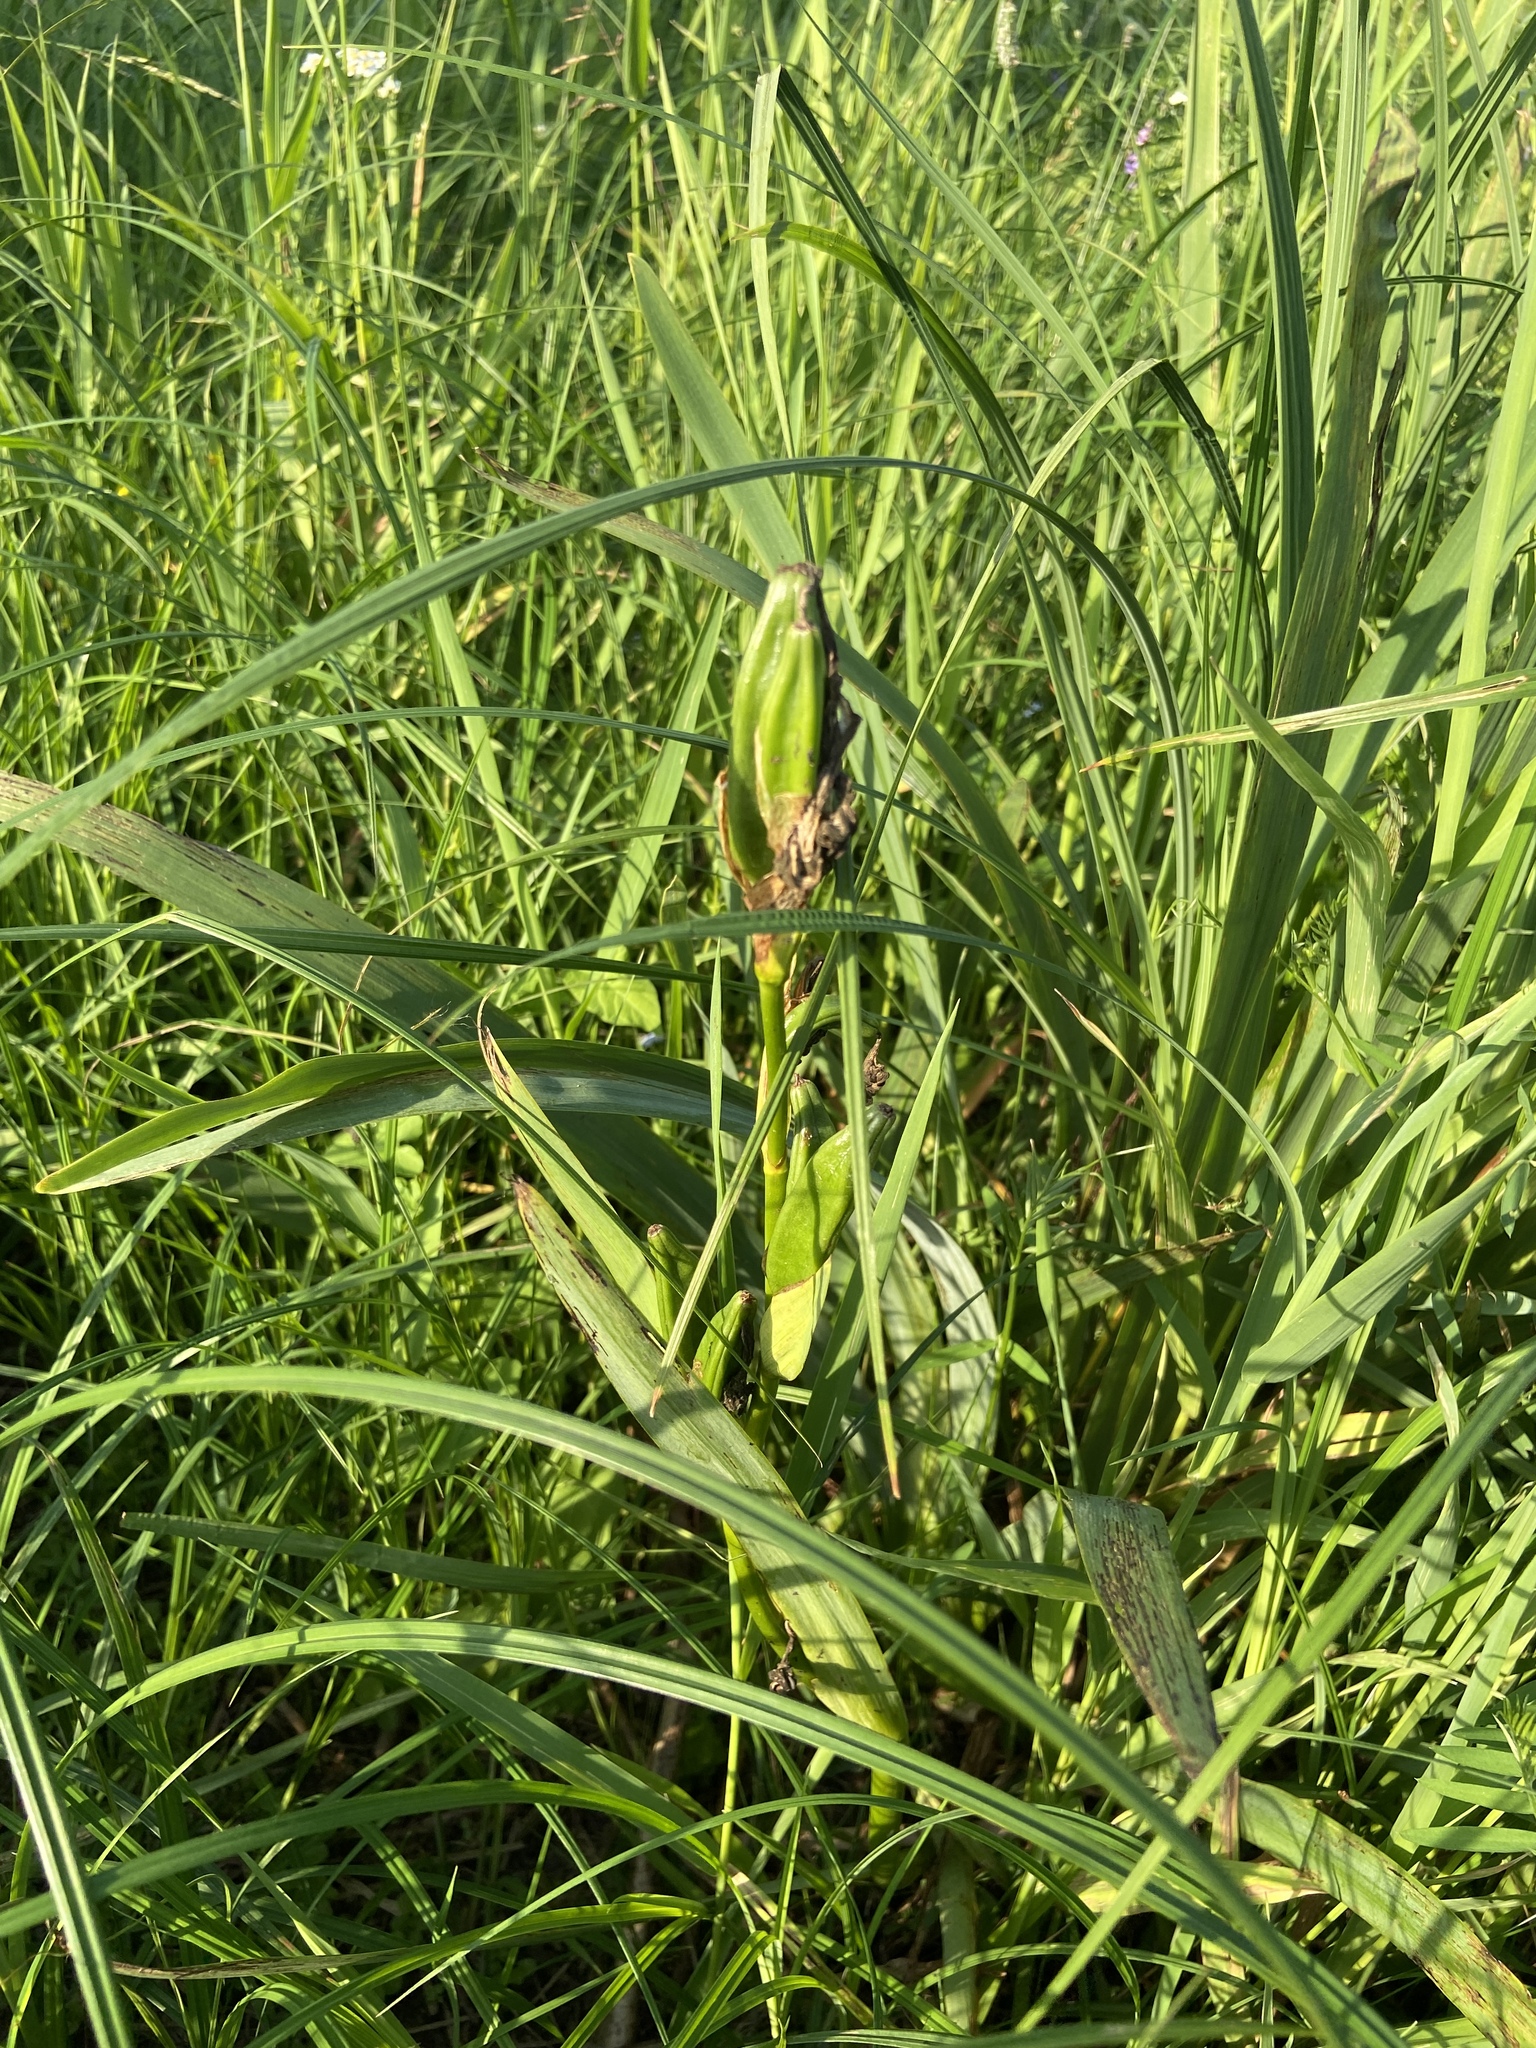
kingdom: Plantae
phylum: Tracheophyta
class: Liliopsida
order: Asparagales
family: Iridaceae
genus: Iris
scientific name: Iris pseudacorus
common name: Yellow flag
